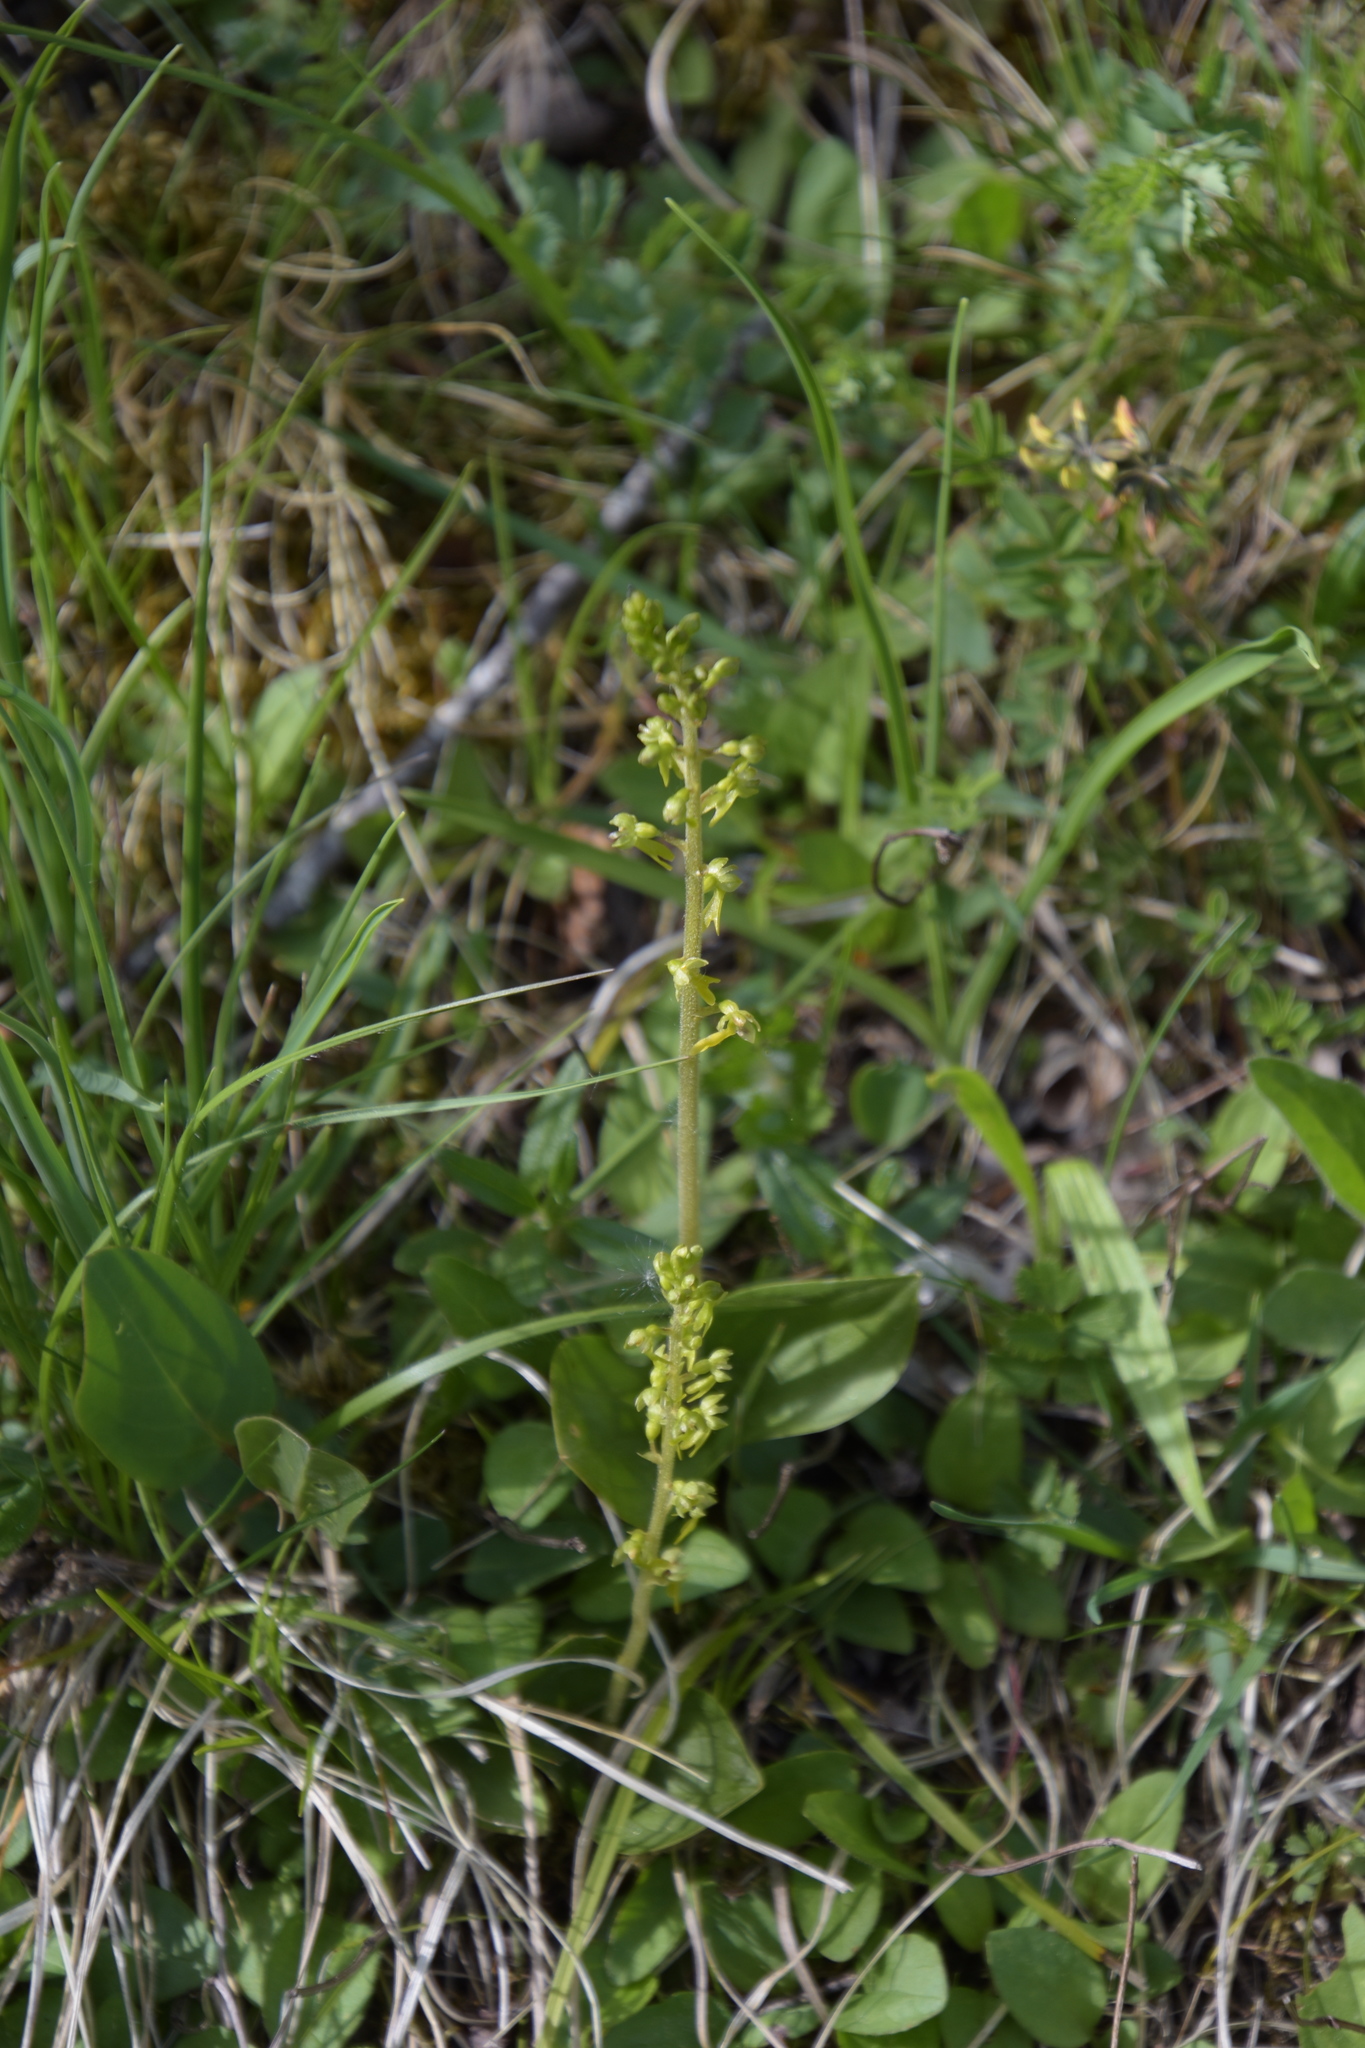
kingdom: Plantae
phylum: Tracheophyta
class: Liliopsida
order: Asparagales
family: Orchidaceae
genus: Neottia
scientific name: Neottia ovata
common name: Common twayblade
